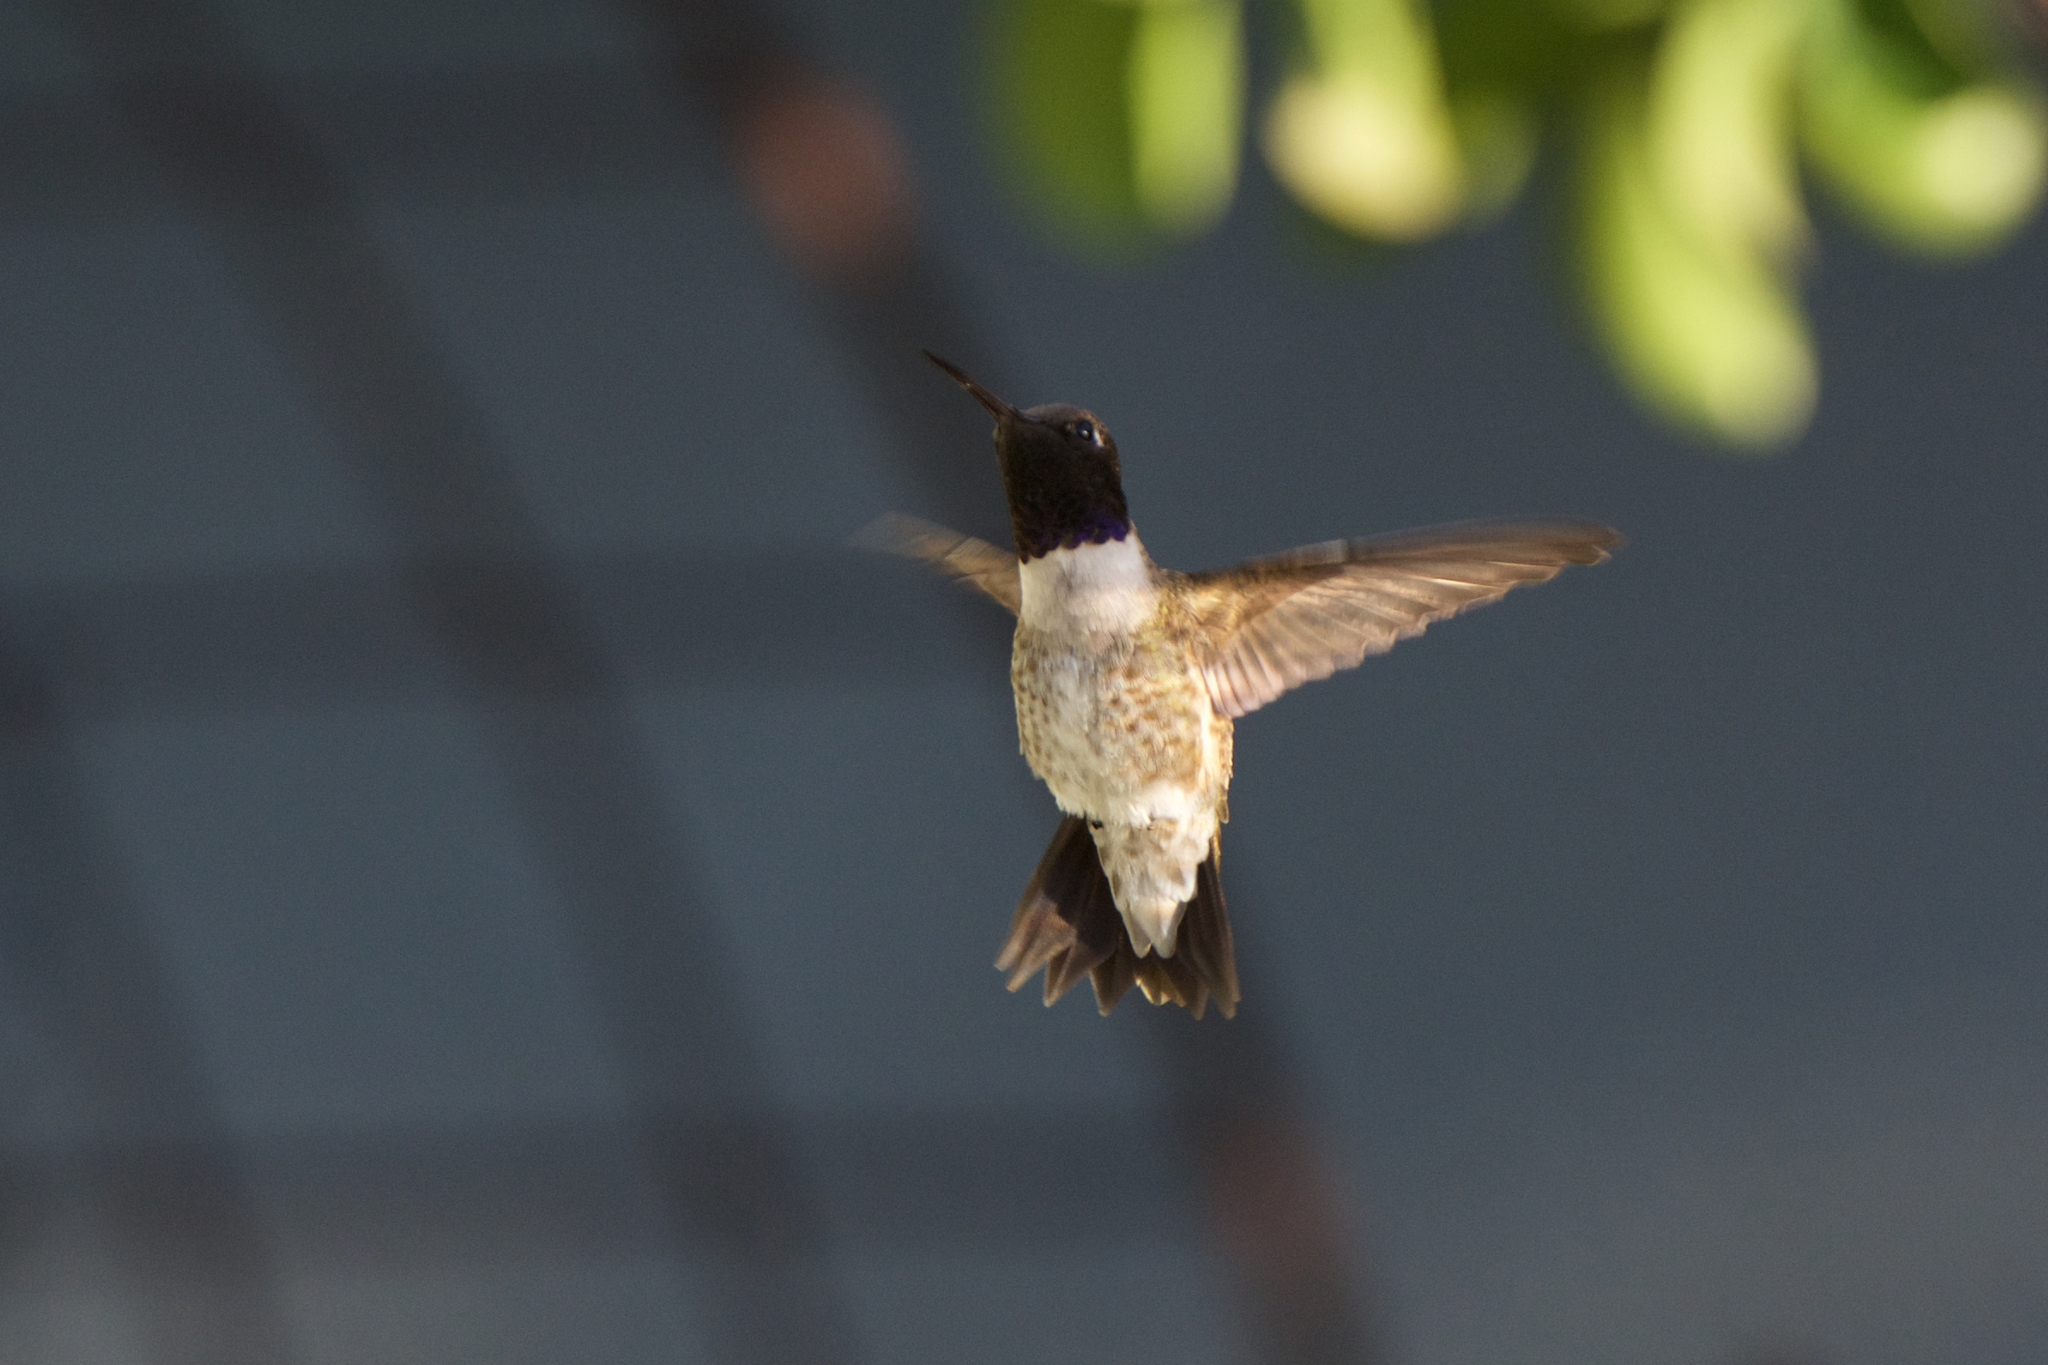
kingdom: Animalia
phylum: Chordata
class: Aves
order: Apodiformes
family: Trochilidae
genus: Archilochus
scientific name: Archilochus alexandri
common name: Black-chinned hummingbird
